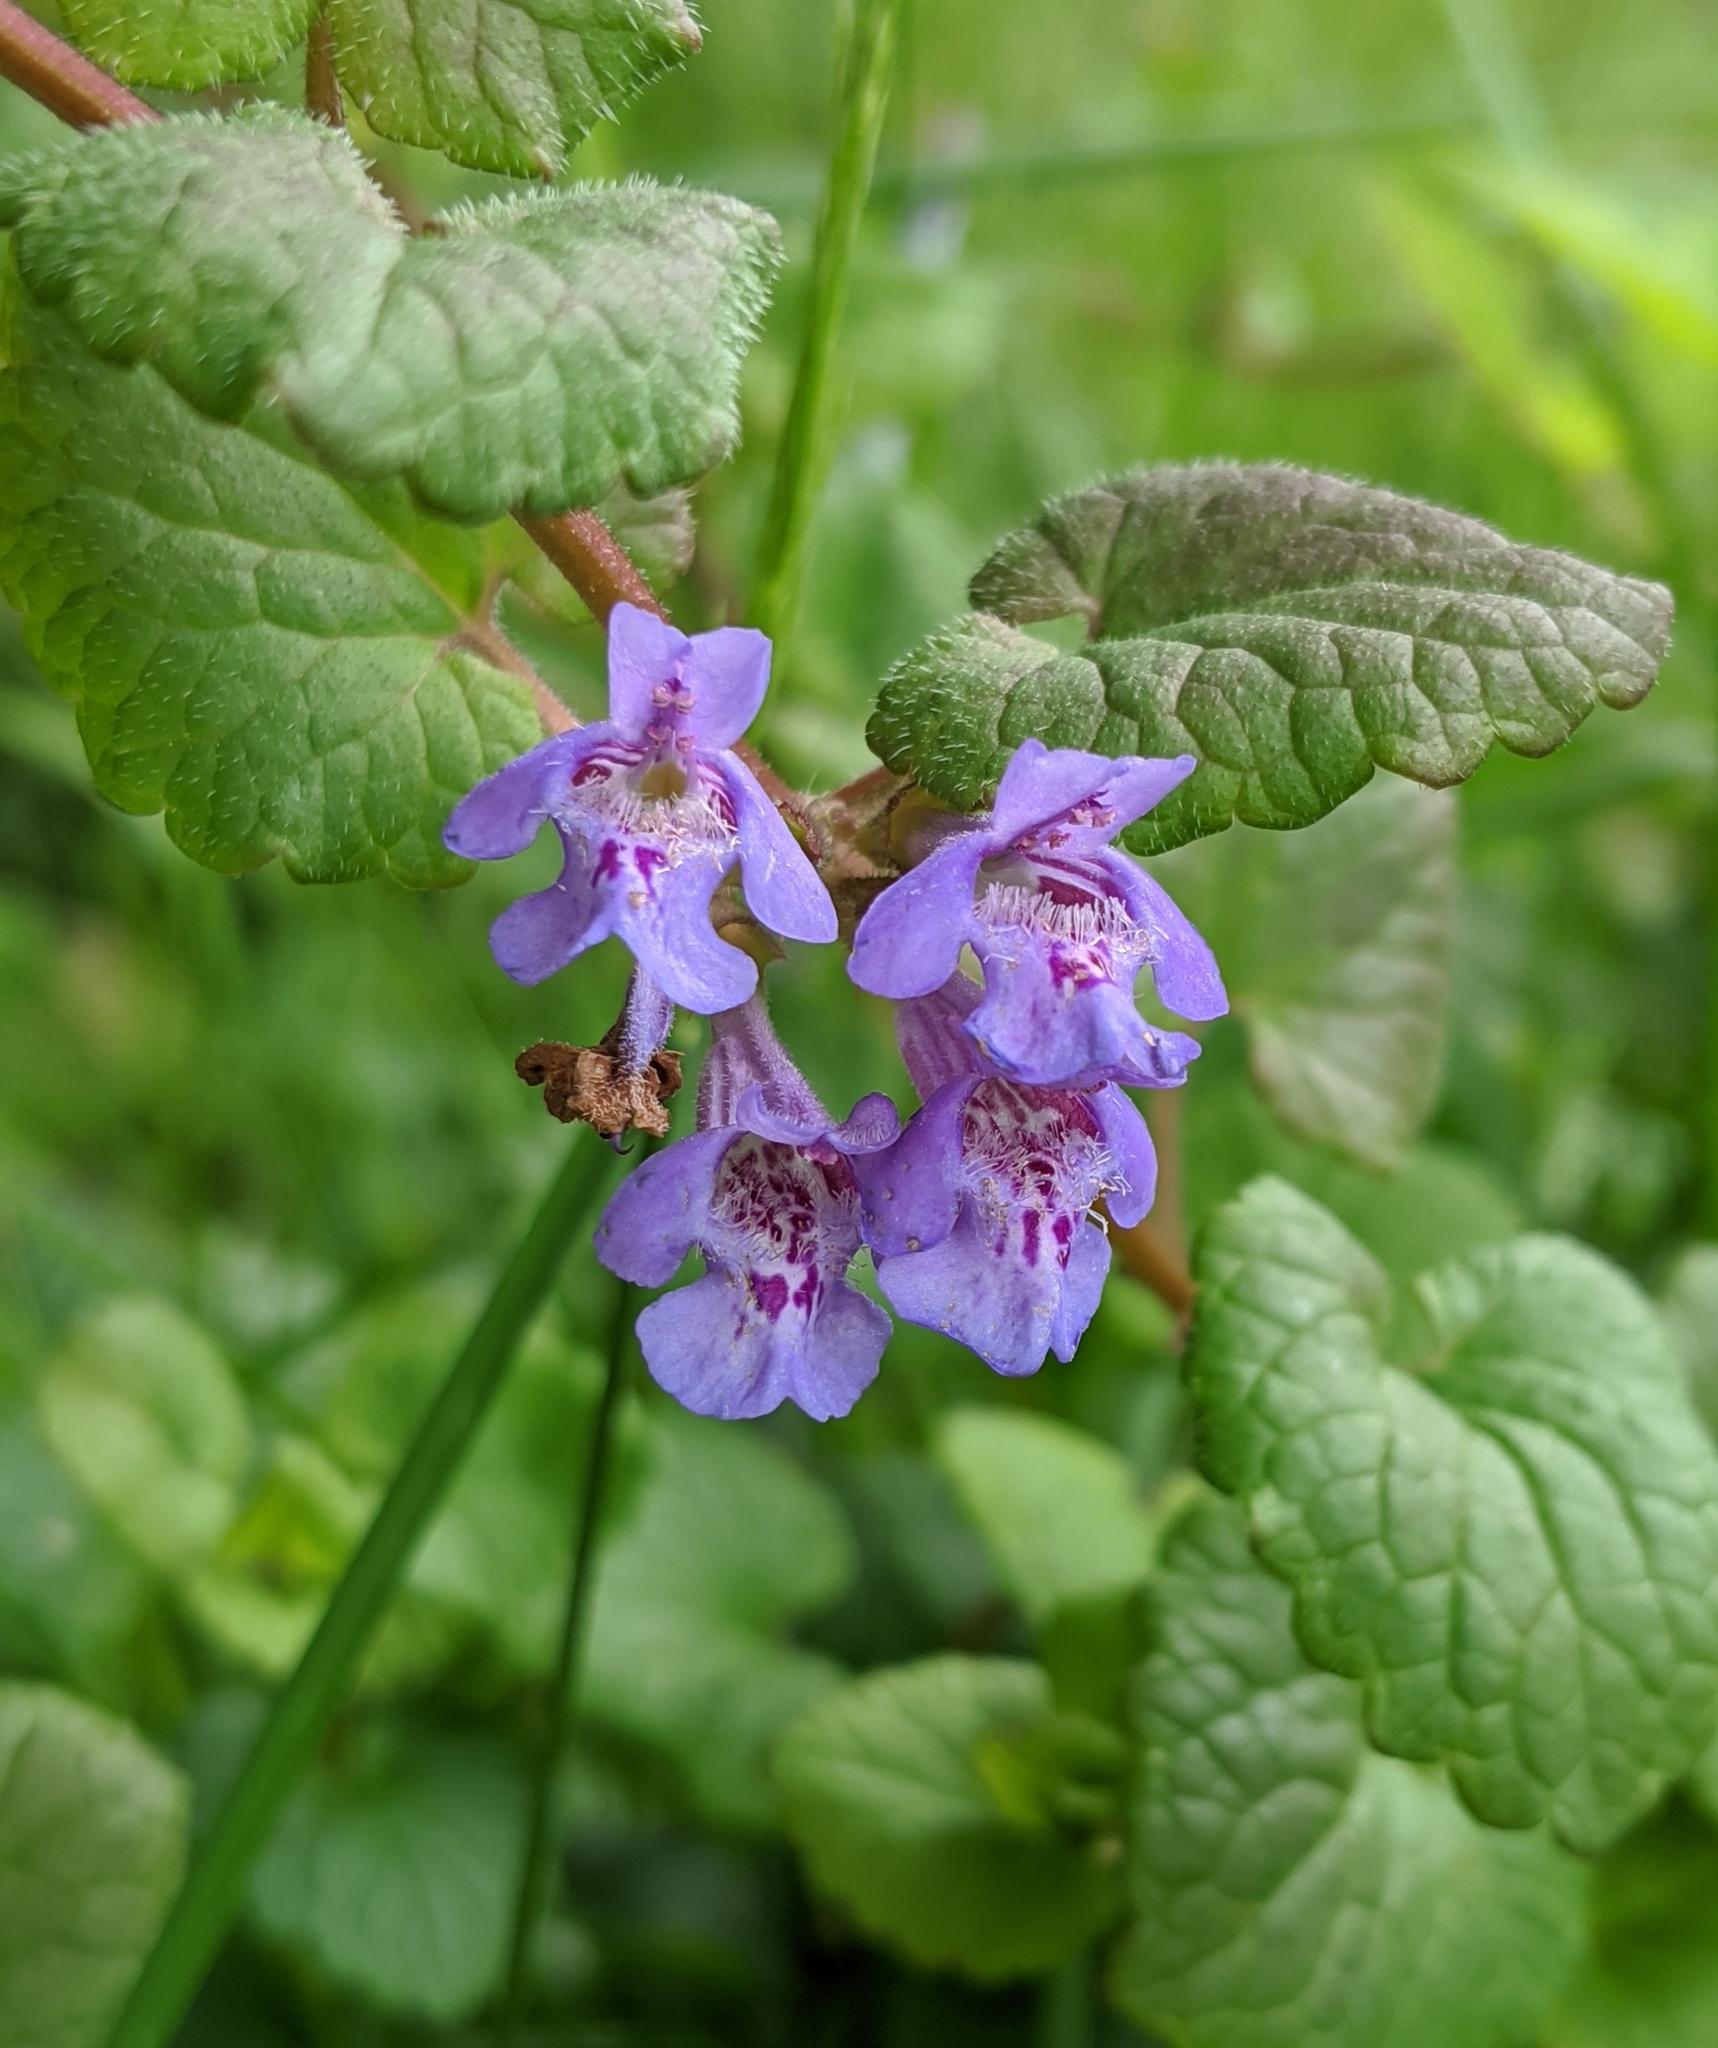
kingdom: Plantae
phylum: Tracheophyta
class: Magnoliopsida
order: Lamiales
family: Lamiaceae
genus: Glechoma
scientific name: Glechoma hederacea
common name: Ground ivy
